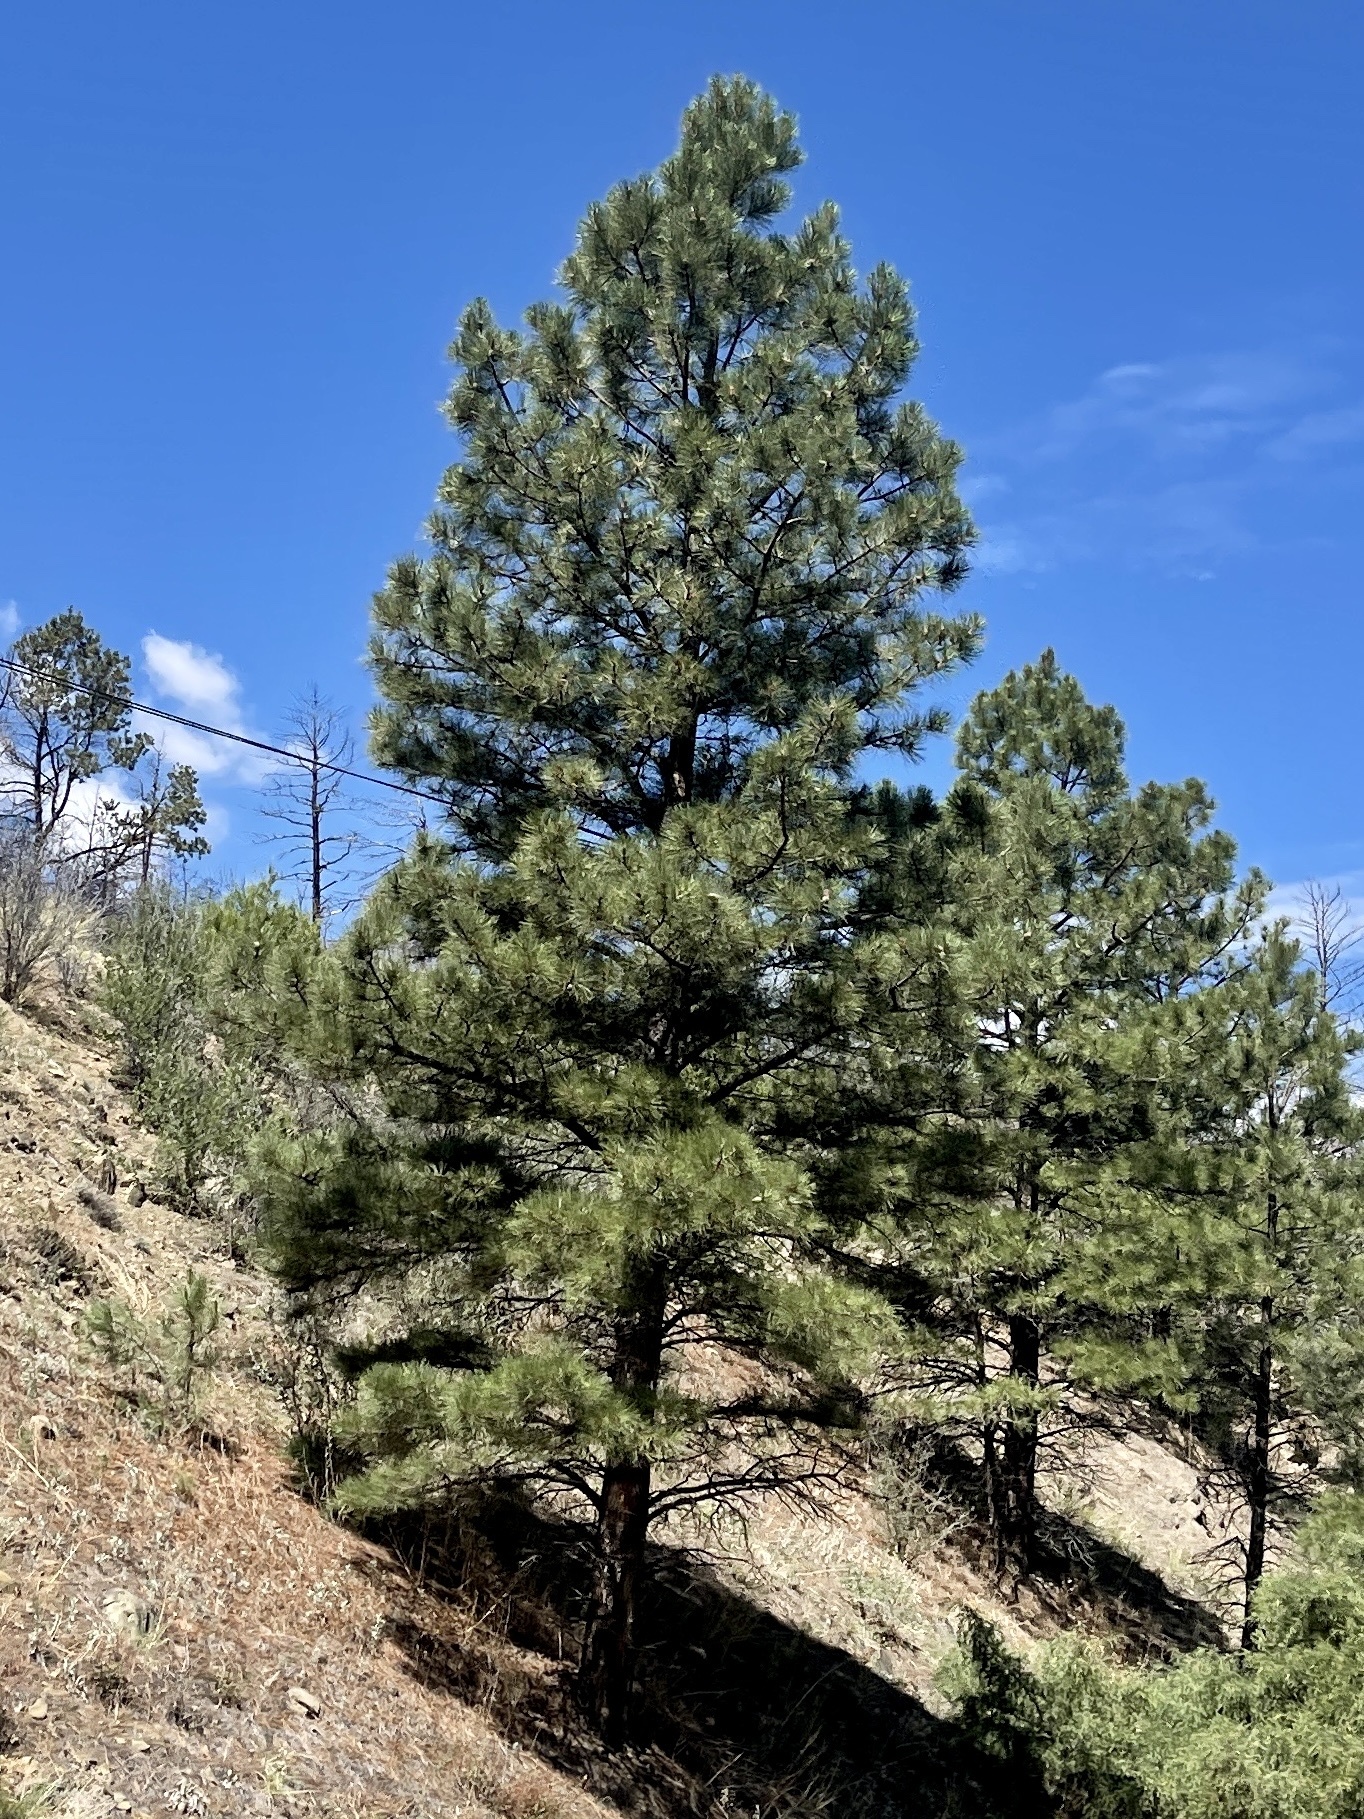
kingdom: Plantae
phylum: Tracheophyta
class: Pinopsida
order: Pinales
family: Pinaceae
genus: Pinus
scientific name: Pinus ponderosa
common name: Western yellow-pine
